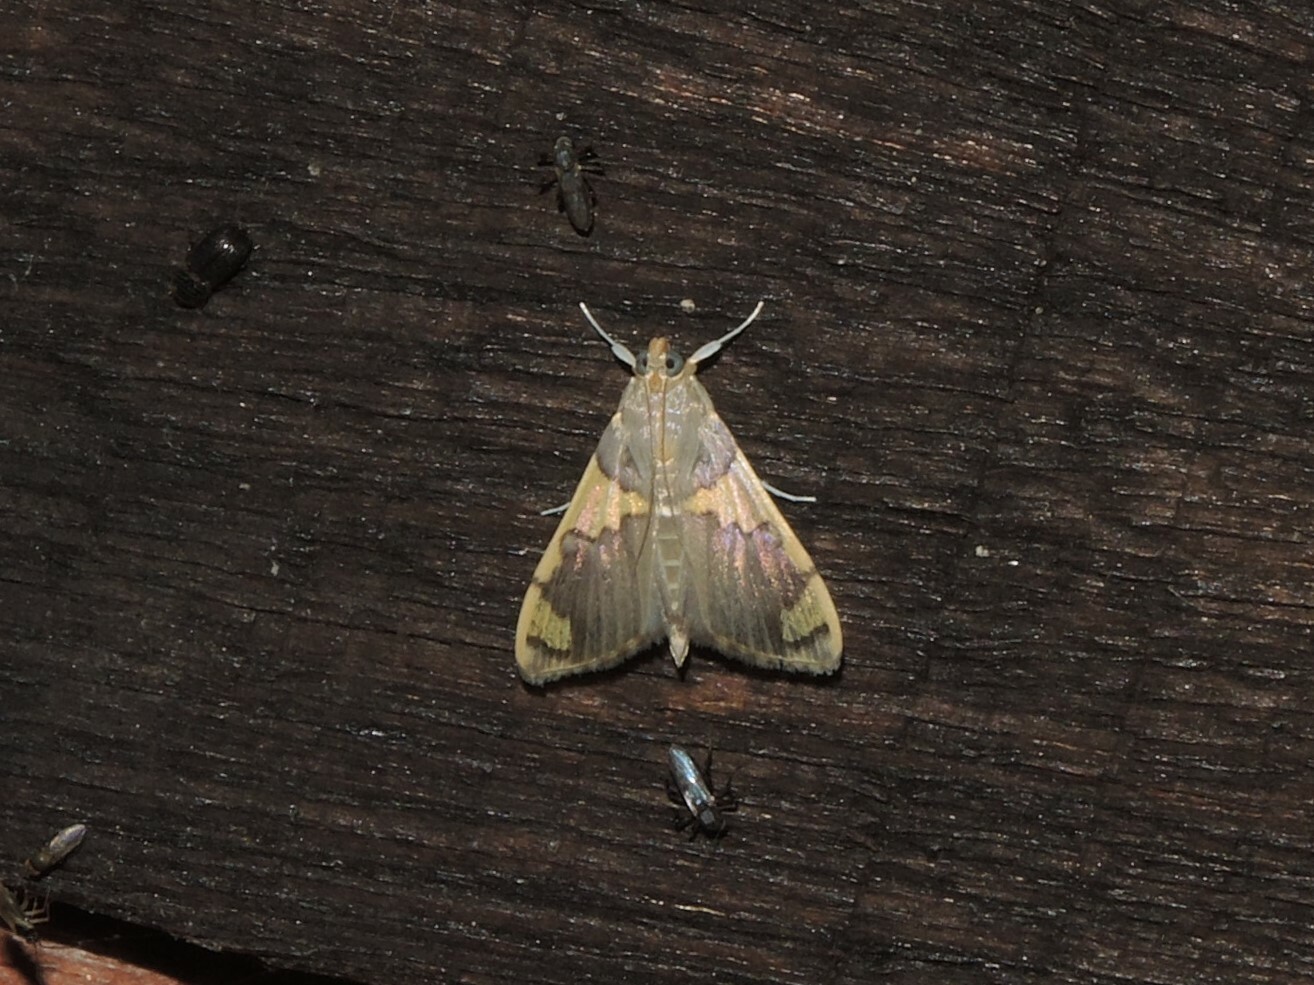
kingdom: Animalia
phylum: Arthropoda
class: Insecta
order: Lepidoptera
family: Crambidae
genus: Rehimena
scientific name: Rehimena phrynealis
